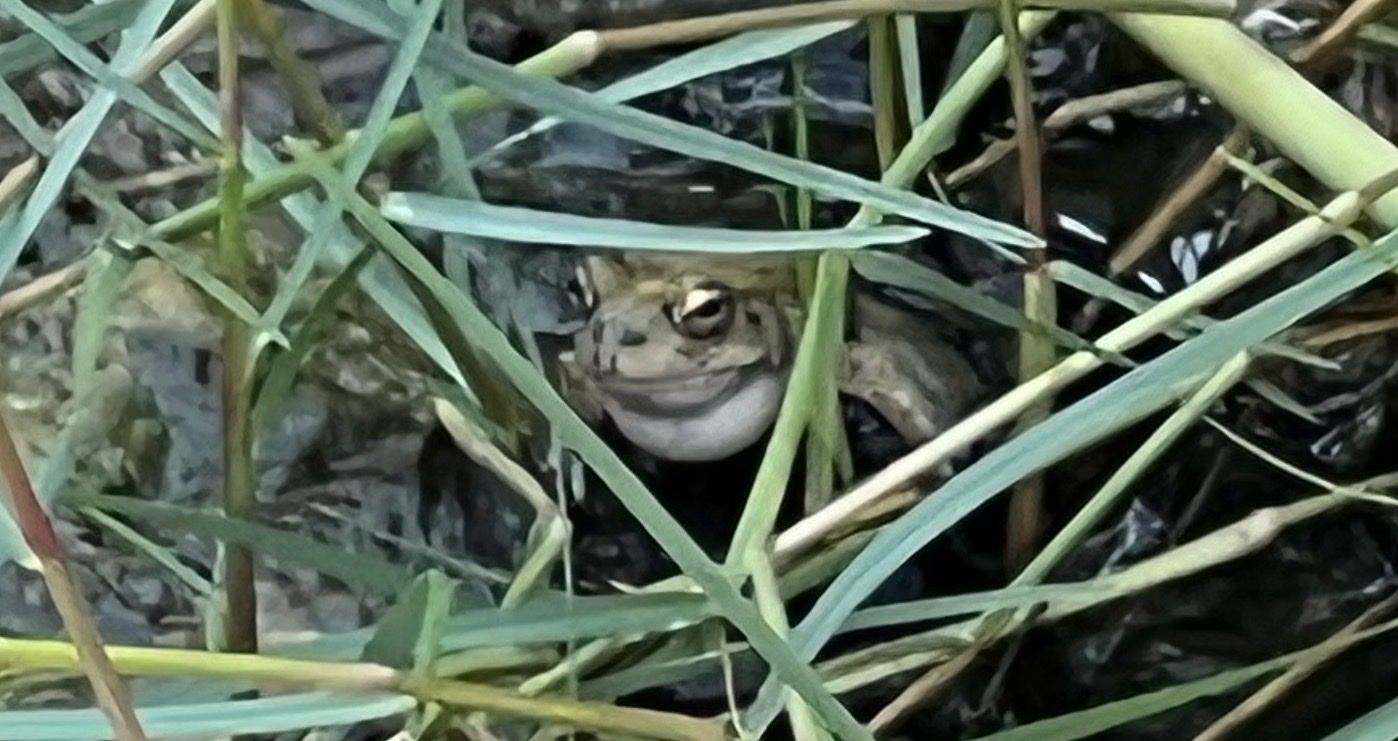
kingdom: Animalia
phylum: Chordata
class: Amphibia
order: Anura
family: Bufonidae
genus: Sclerophrys
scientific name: Sclerophrys arabica
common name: Arabian toad
